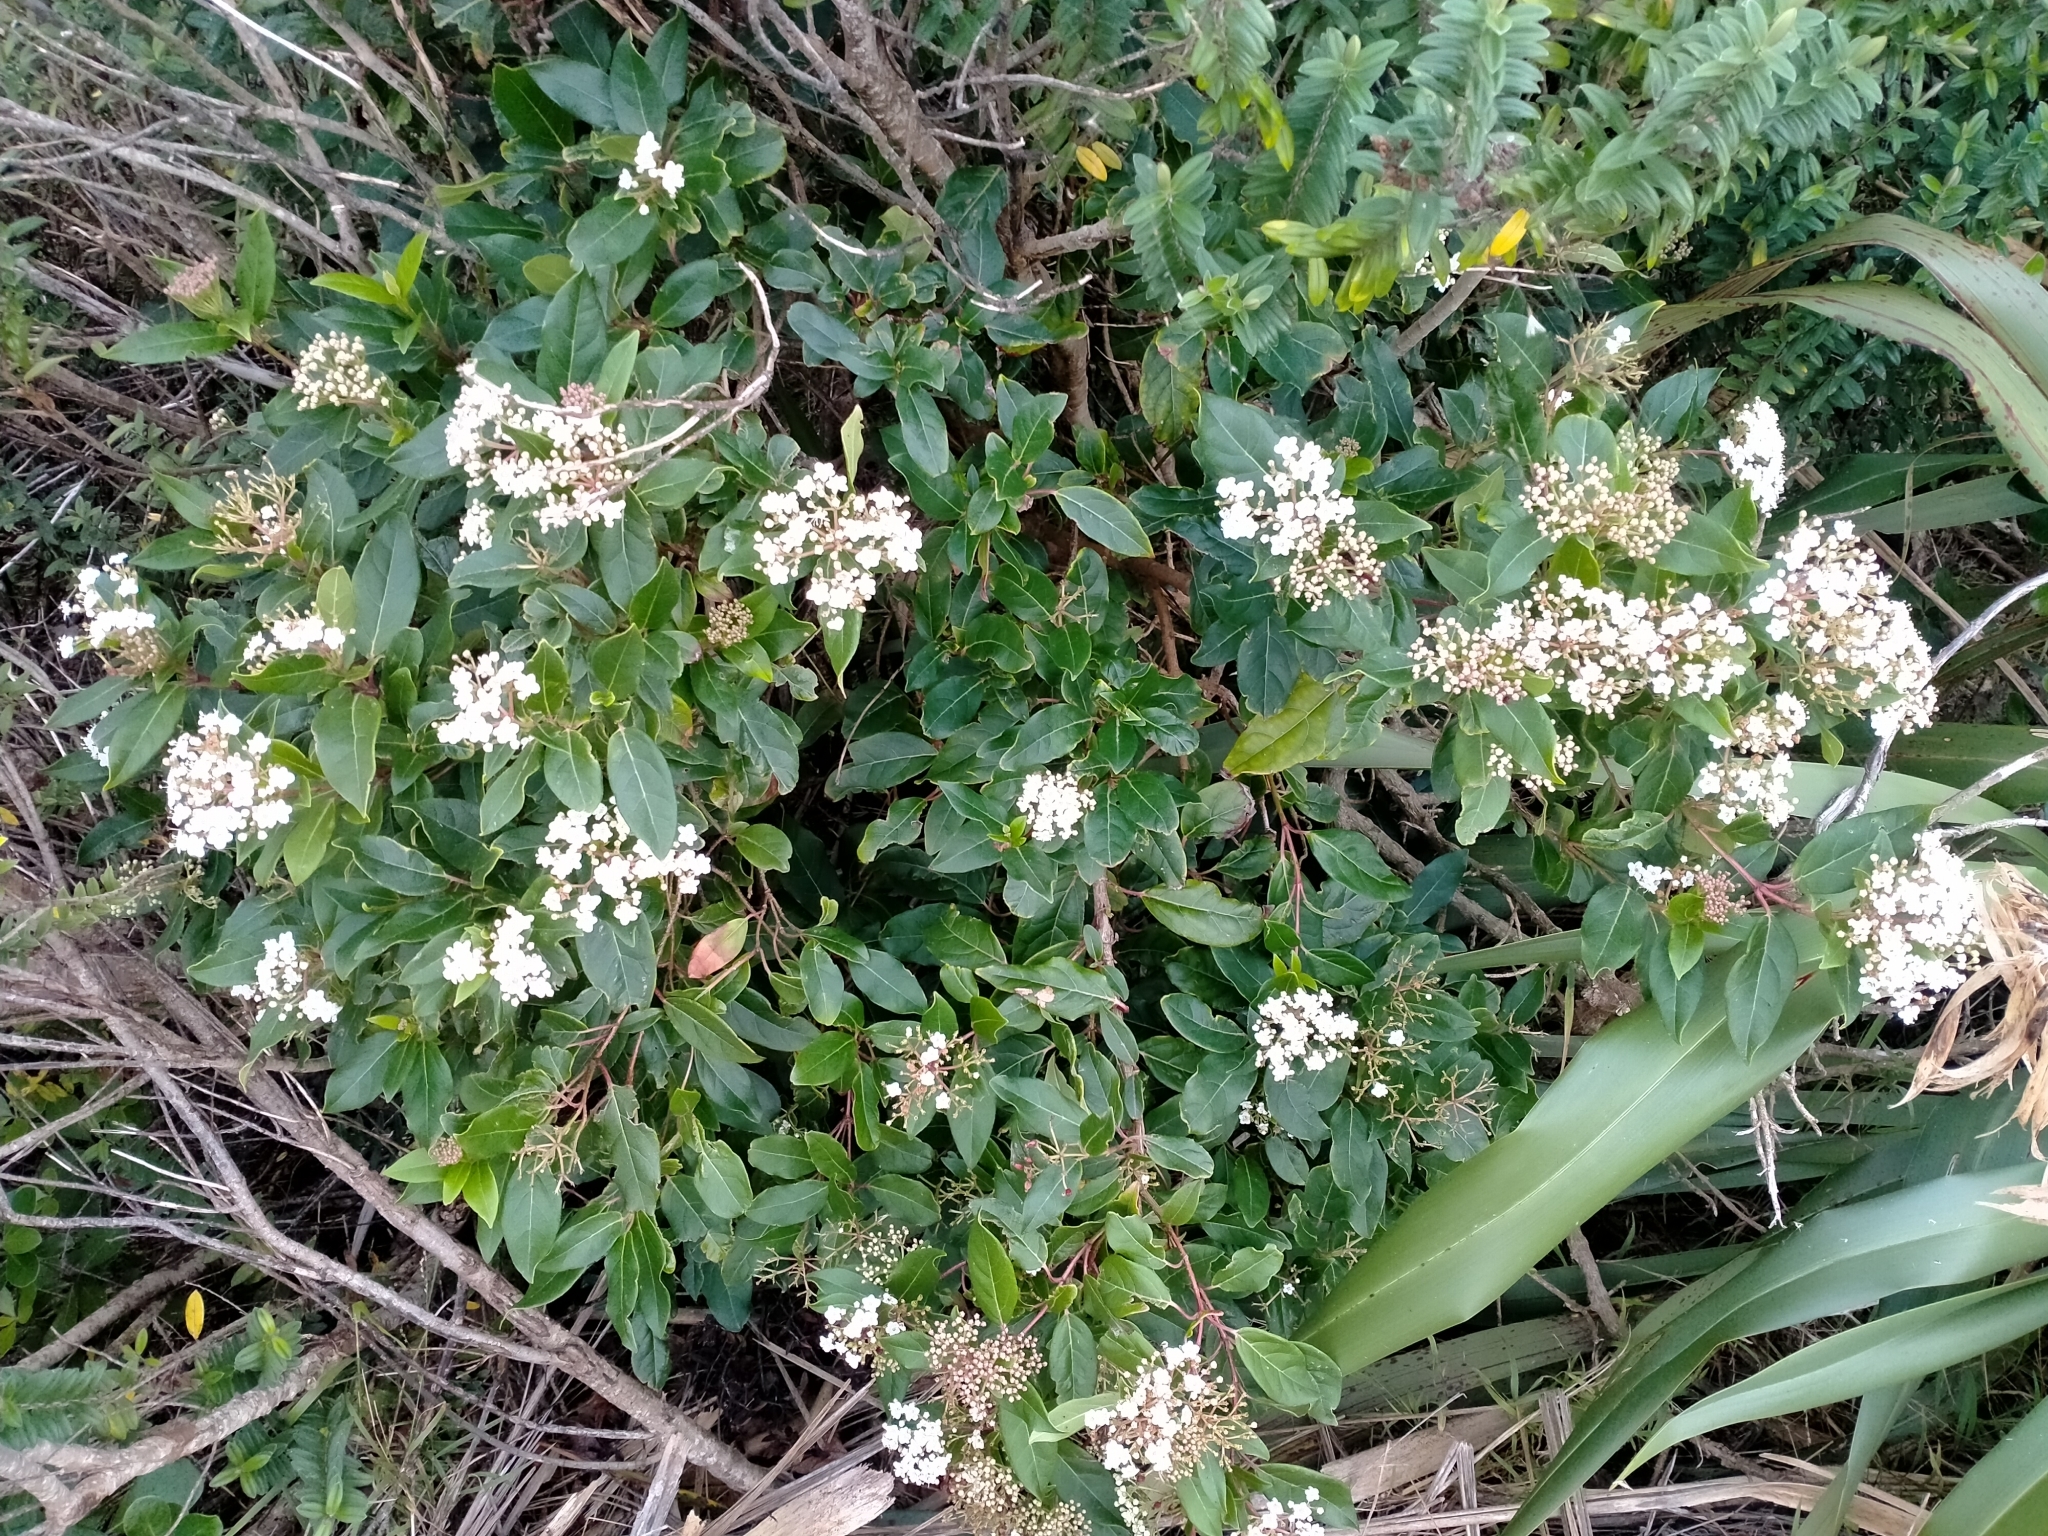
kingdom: Plantae
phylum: Tracheophyta
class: Magnoliopsida
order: Dipsacales
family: Viburnaceae
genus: Viburnum
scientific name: Viburnum tinus
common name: Laurustinus
